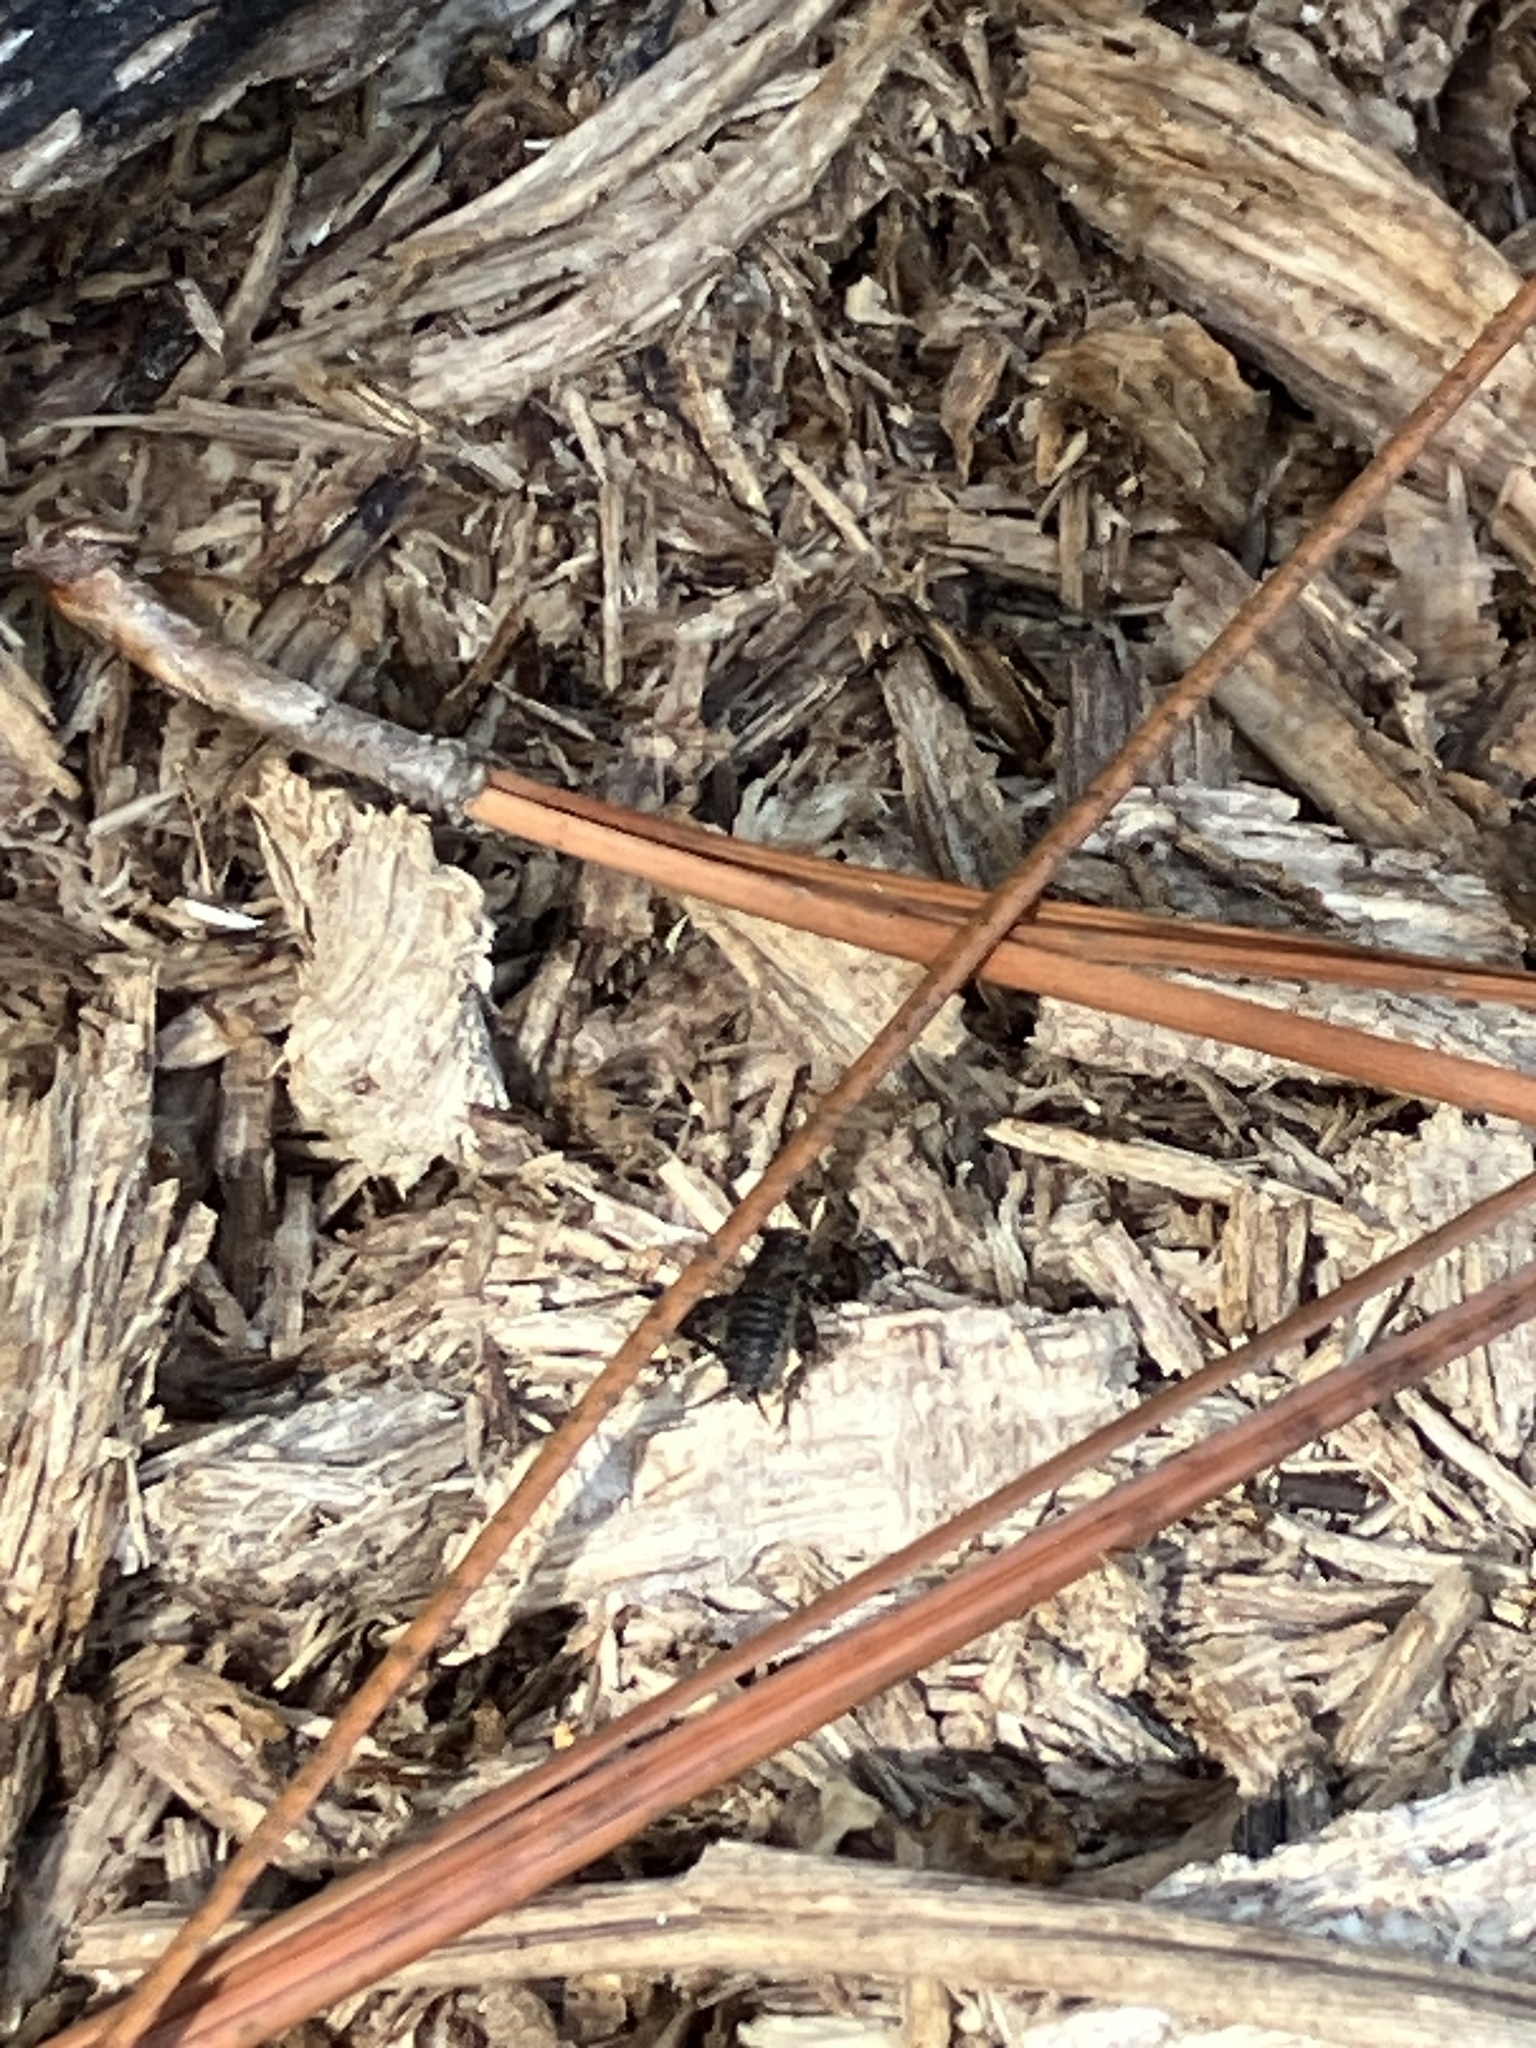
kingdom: Animalia
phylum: Arthropoda
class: Insecta
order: Orthoptera
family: Trigonidiidae
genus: Pictonemobius
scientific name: Pictonemobius
